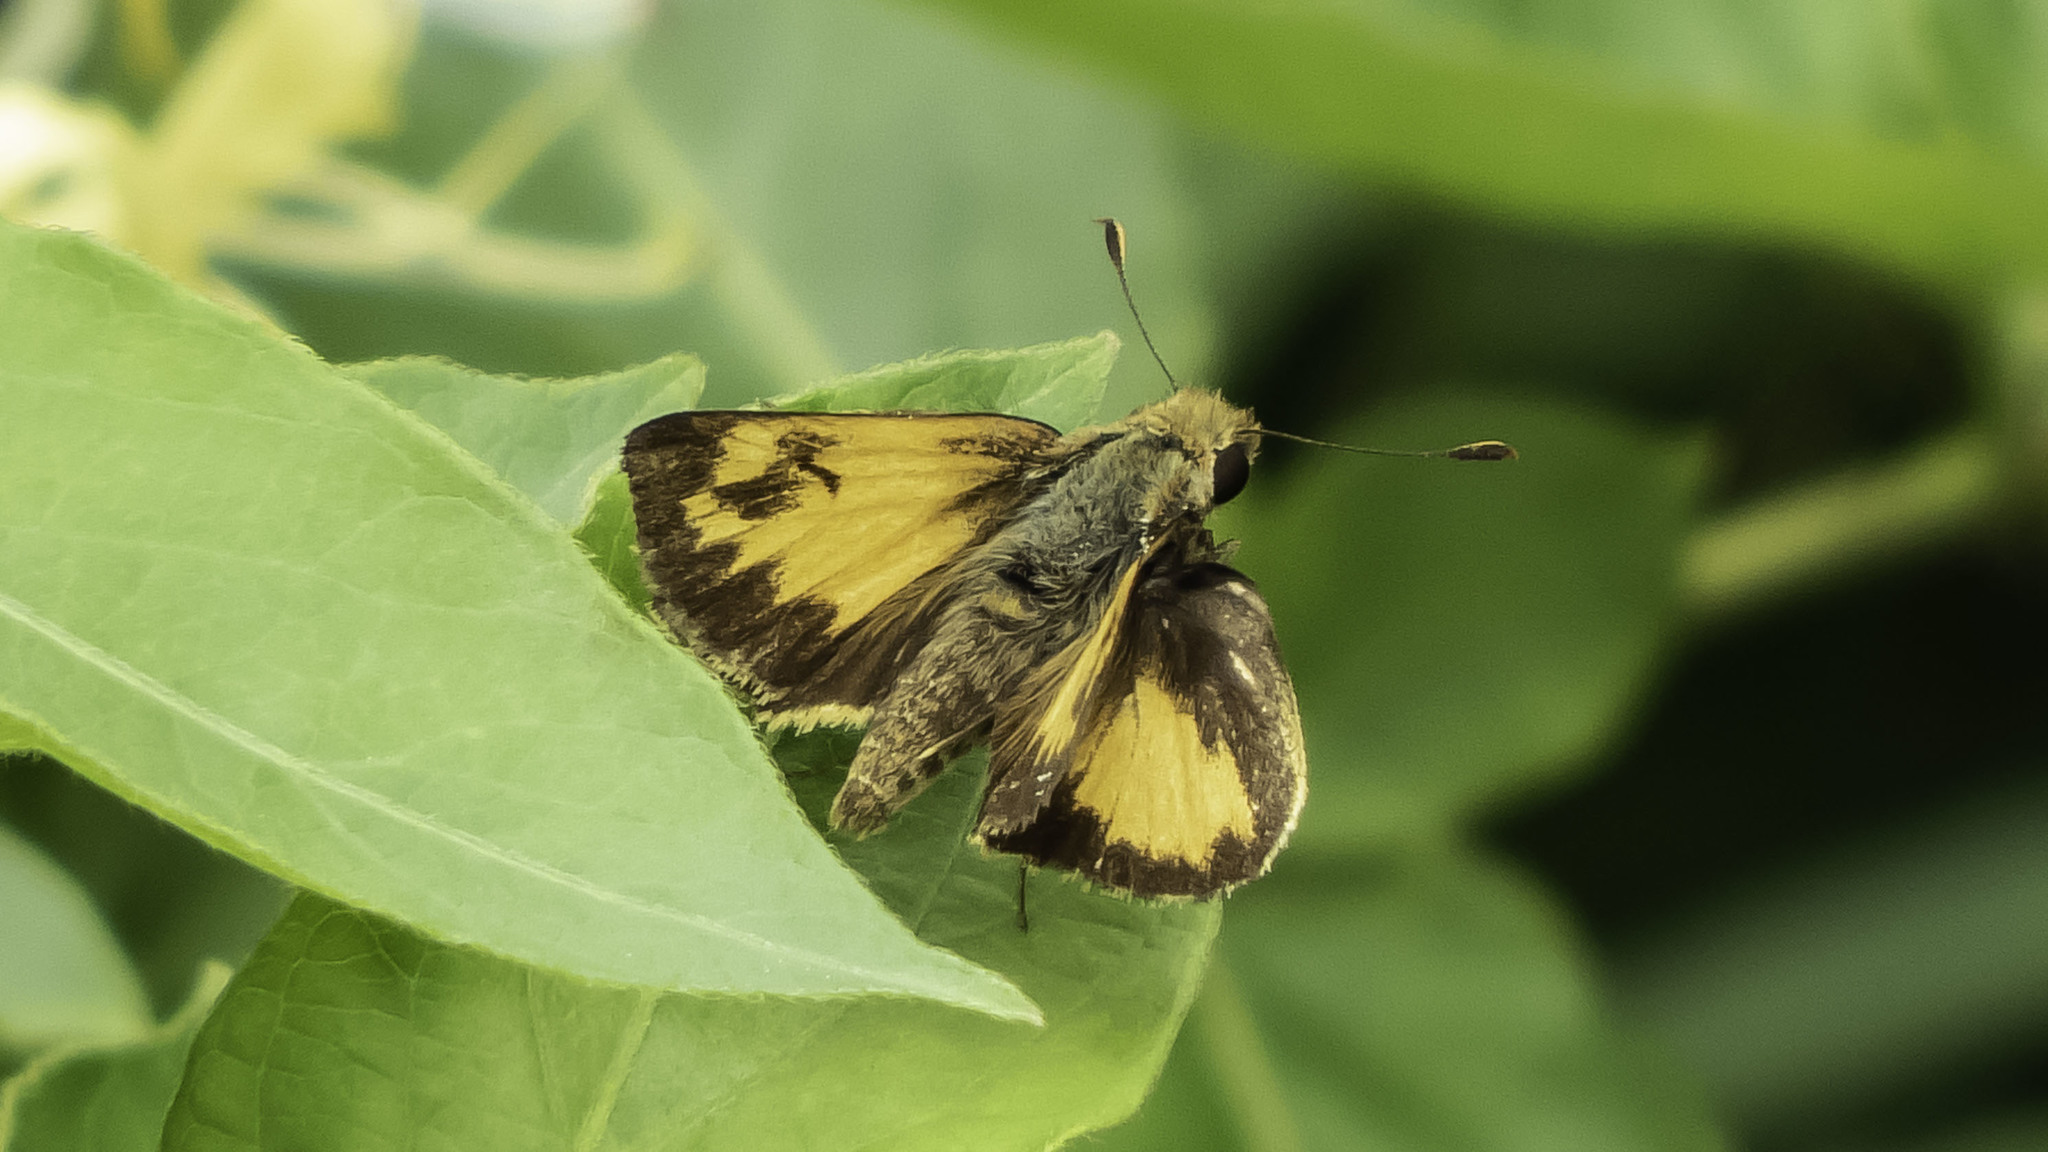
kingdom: Animalia
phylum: Arthropoda
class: Insecta
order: Lepidoptera
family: Hesperiidae
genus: Lon
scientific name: Lon zabulon
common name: Zabulon skipper
